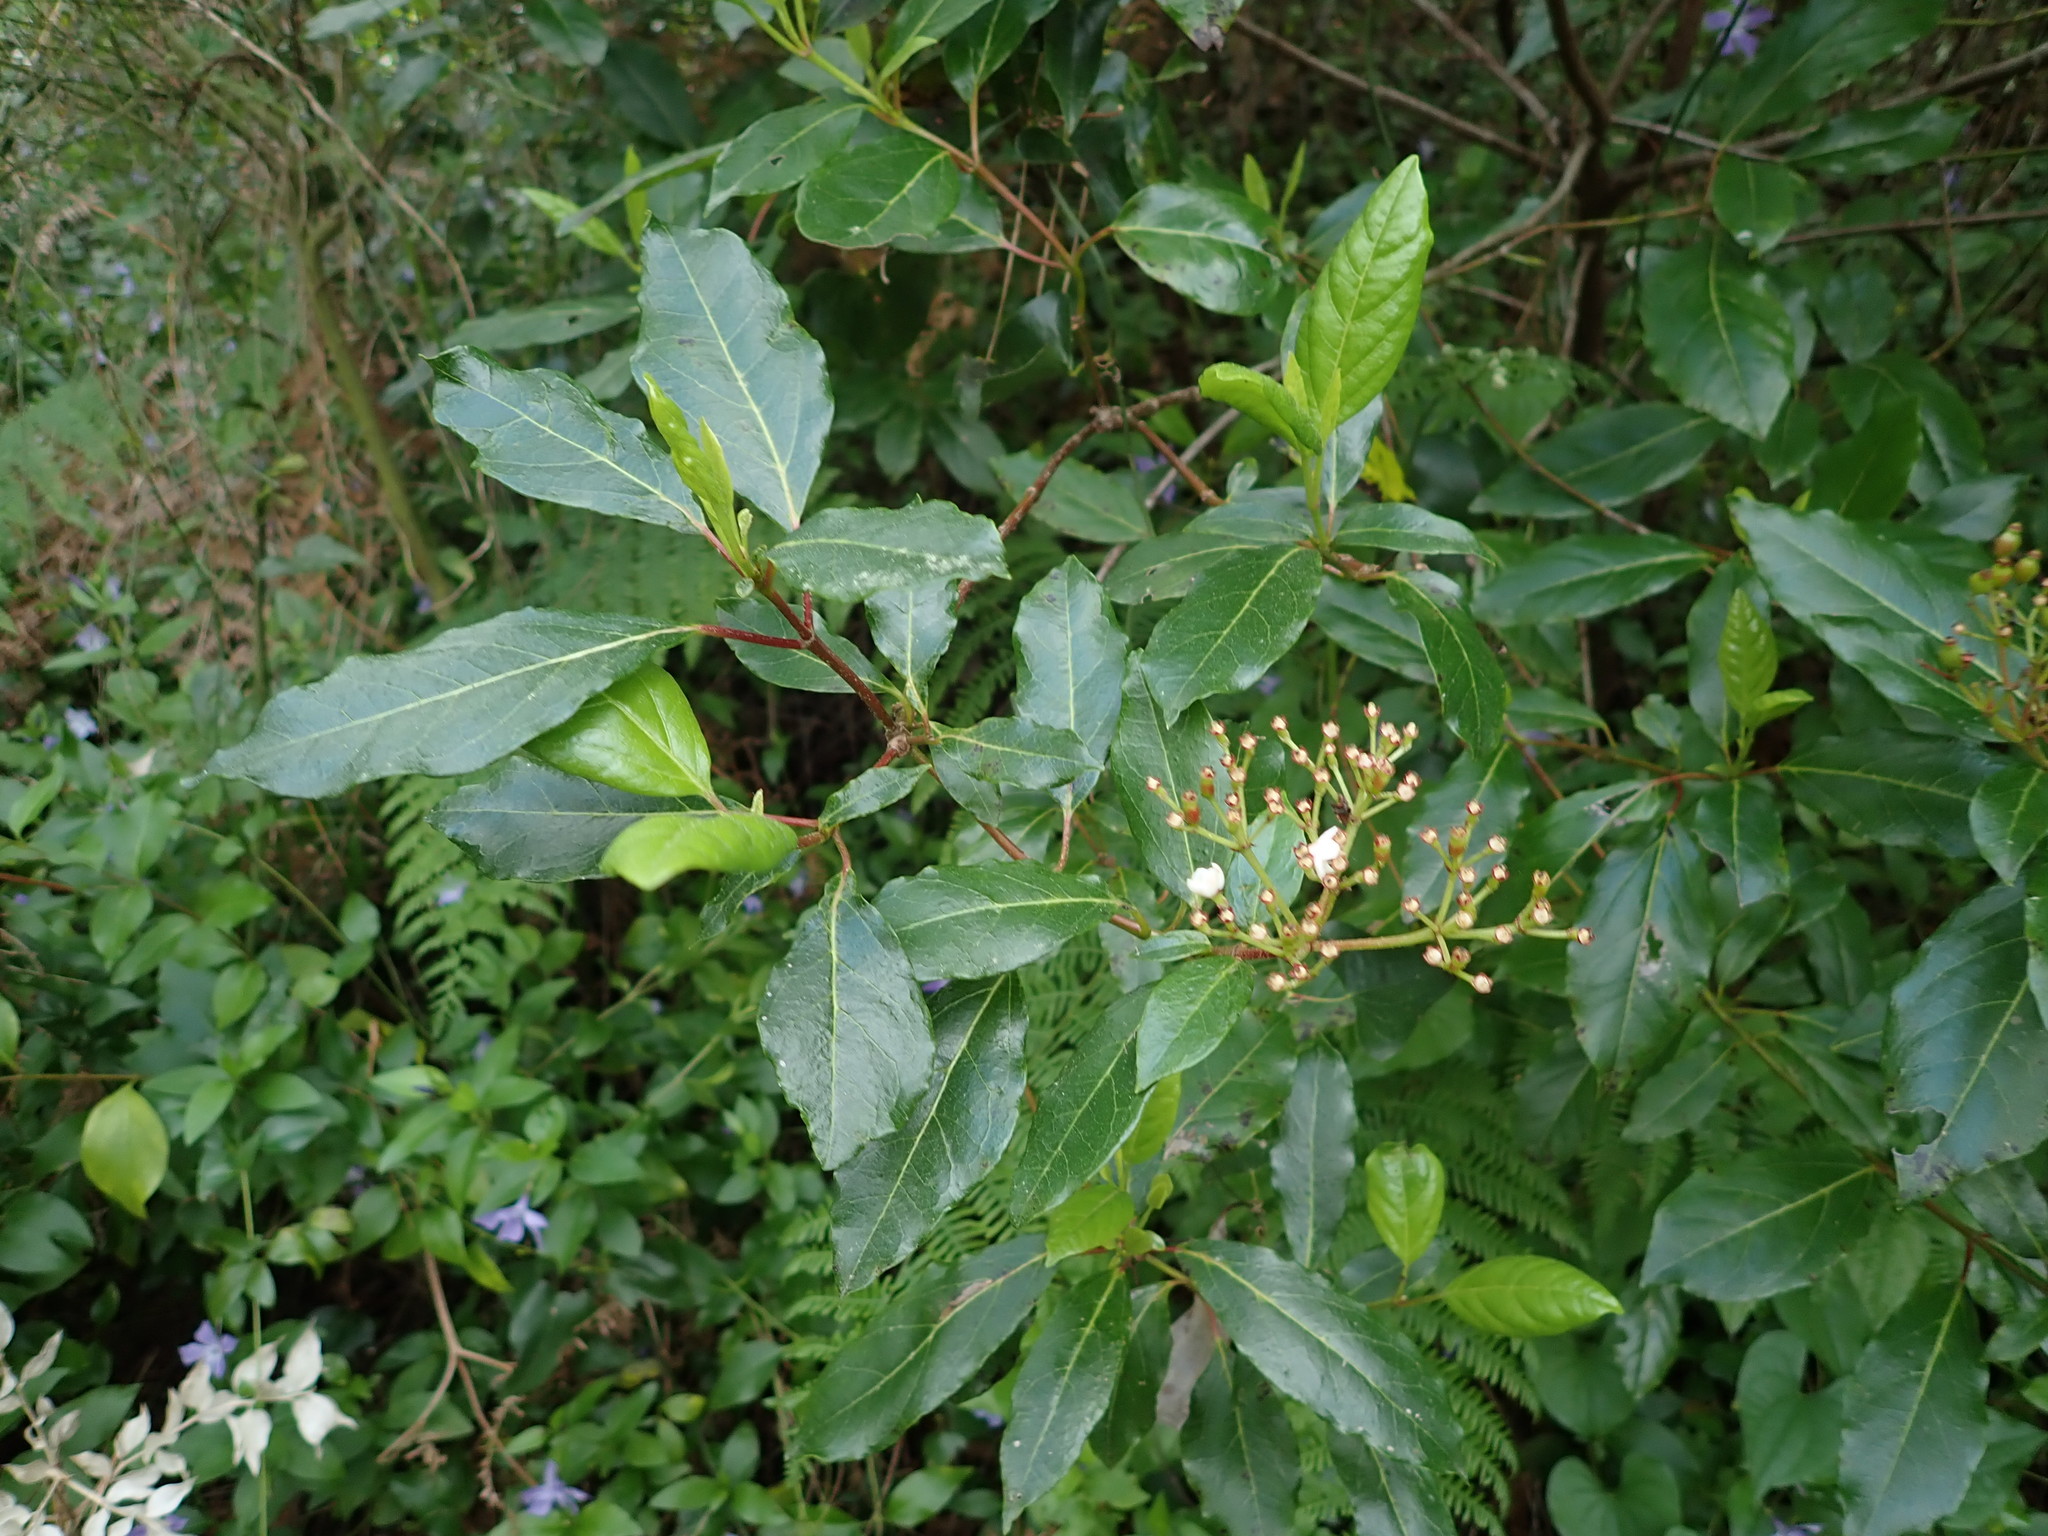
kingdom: Plantae
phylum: Tracheophyta
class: Magnoliopsida
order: Dipsacales
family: Viburnaceae
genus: Viburnum
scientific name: Viburnum tinus
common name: Laurustinus
